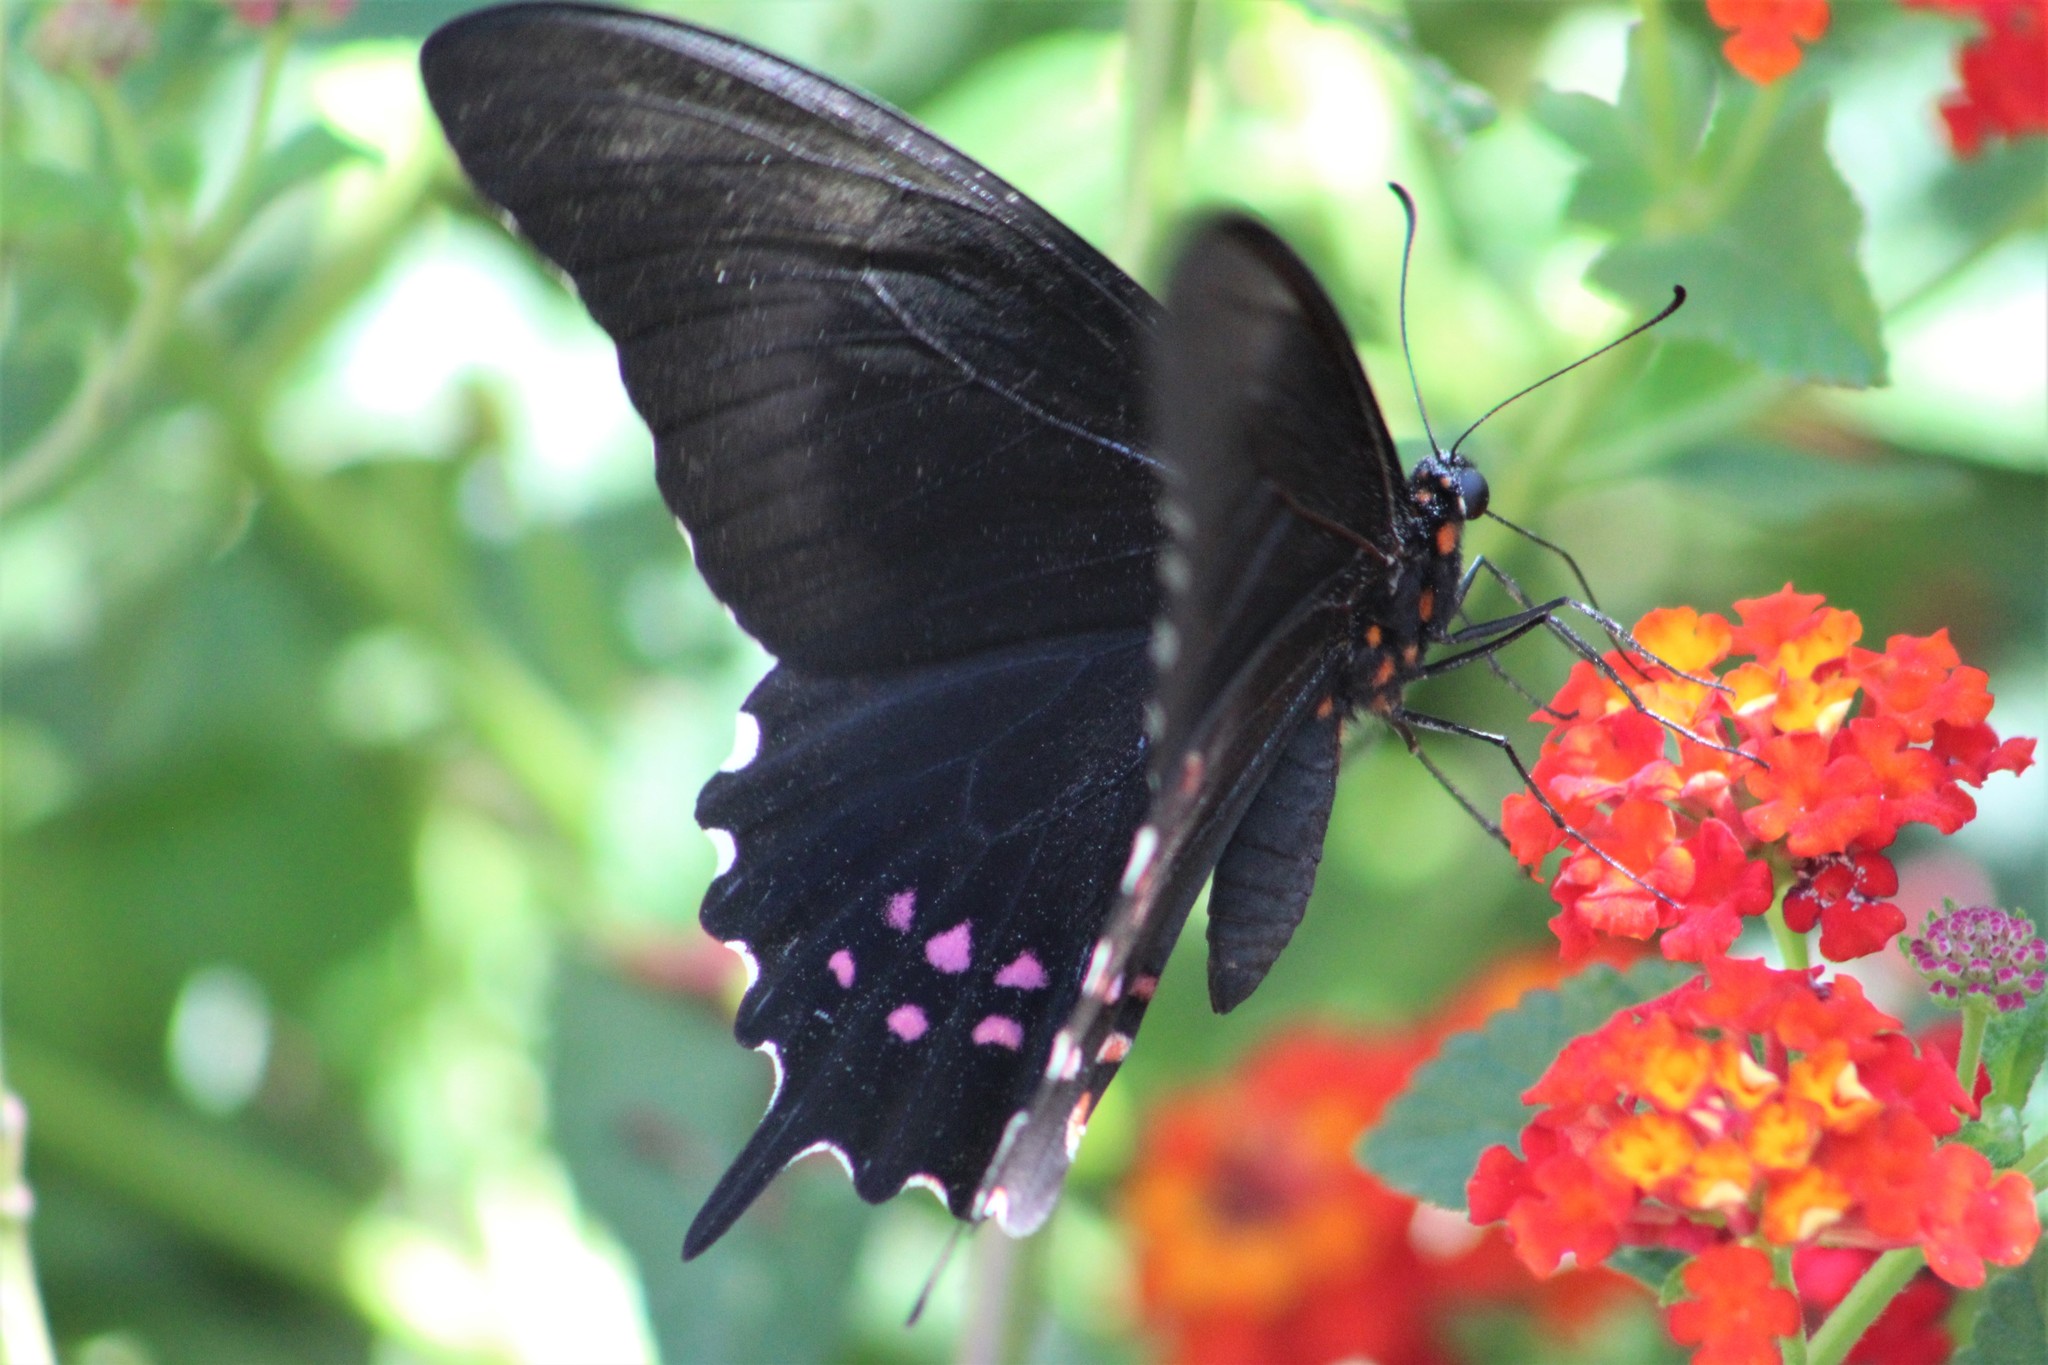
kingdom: Animalia
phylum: Arthropoda
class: Insecta
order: Lepidoptera
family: Papilionidae
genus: Heraclides
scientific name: Heraclides rogeri
